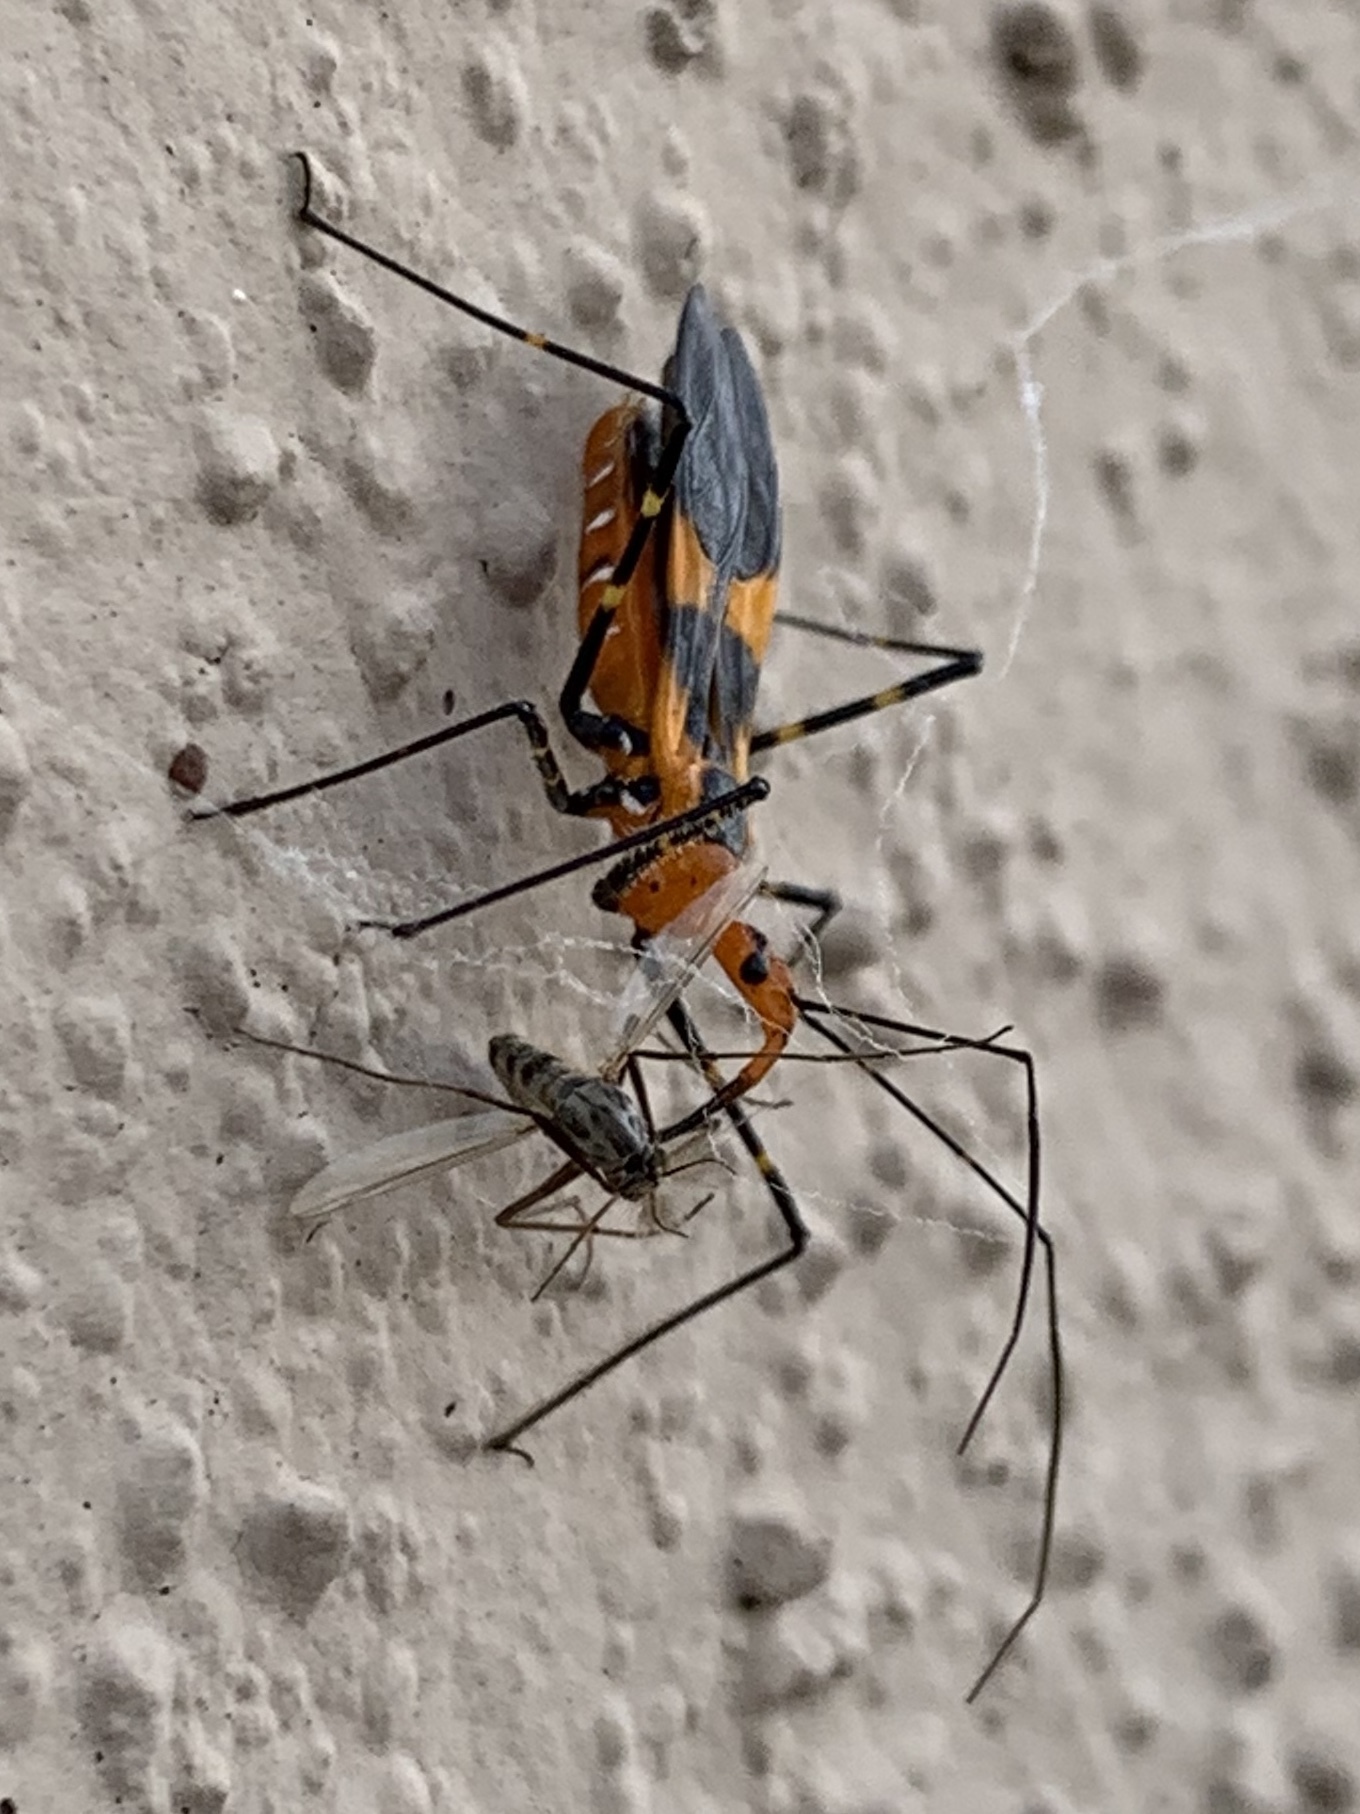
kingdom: Animalia
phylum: Arthropoda
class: Insecta
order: Hemiptera
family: Reduviidae
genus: Zelus
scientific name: Zelus longipes
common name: Milkweed assassin bug
